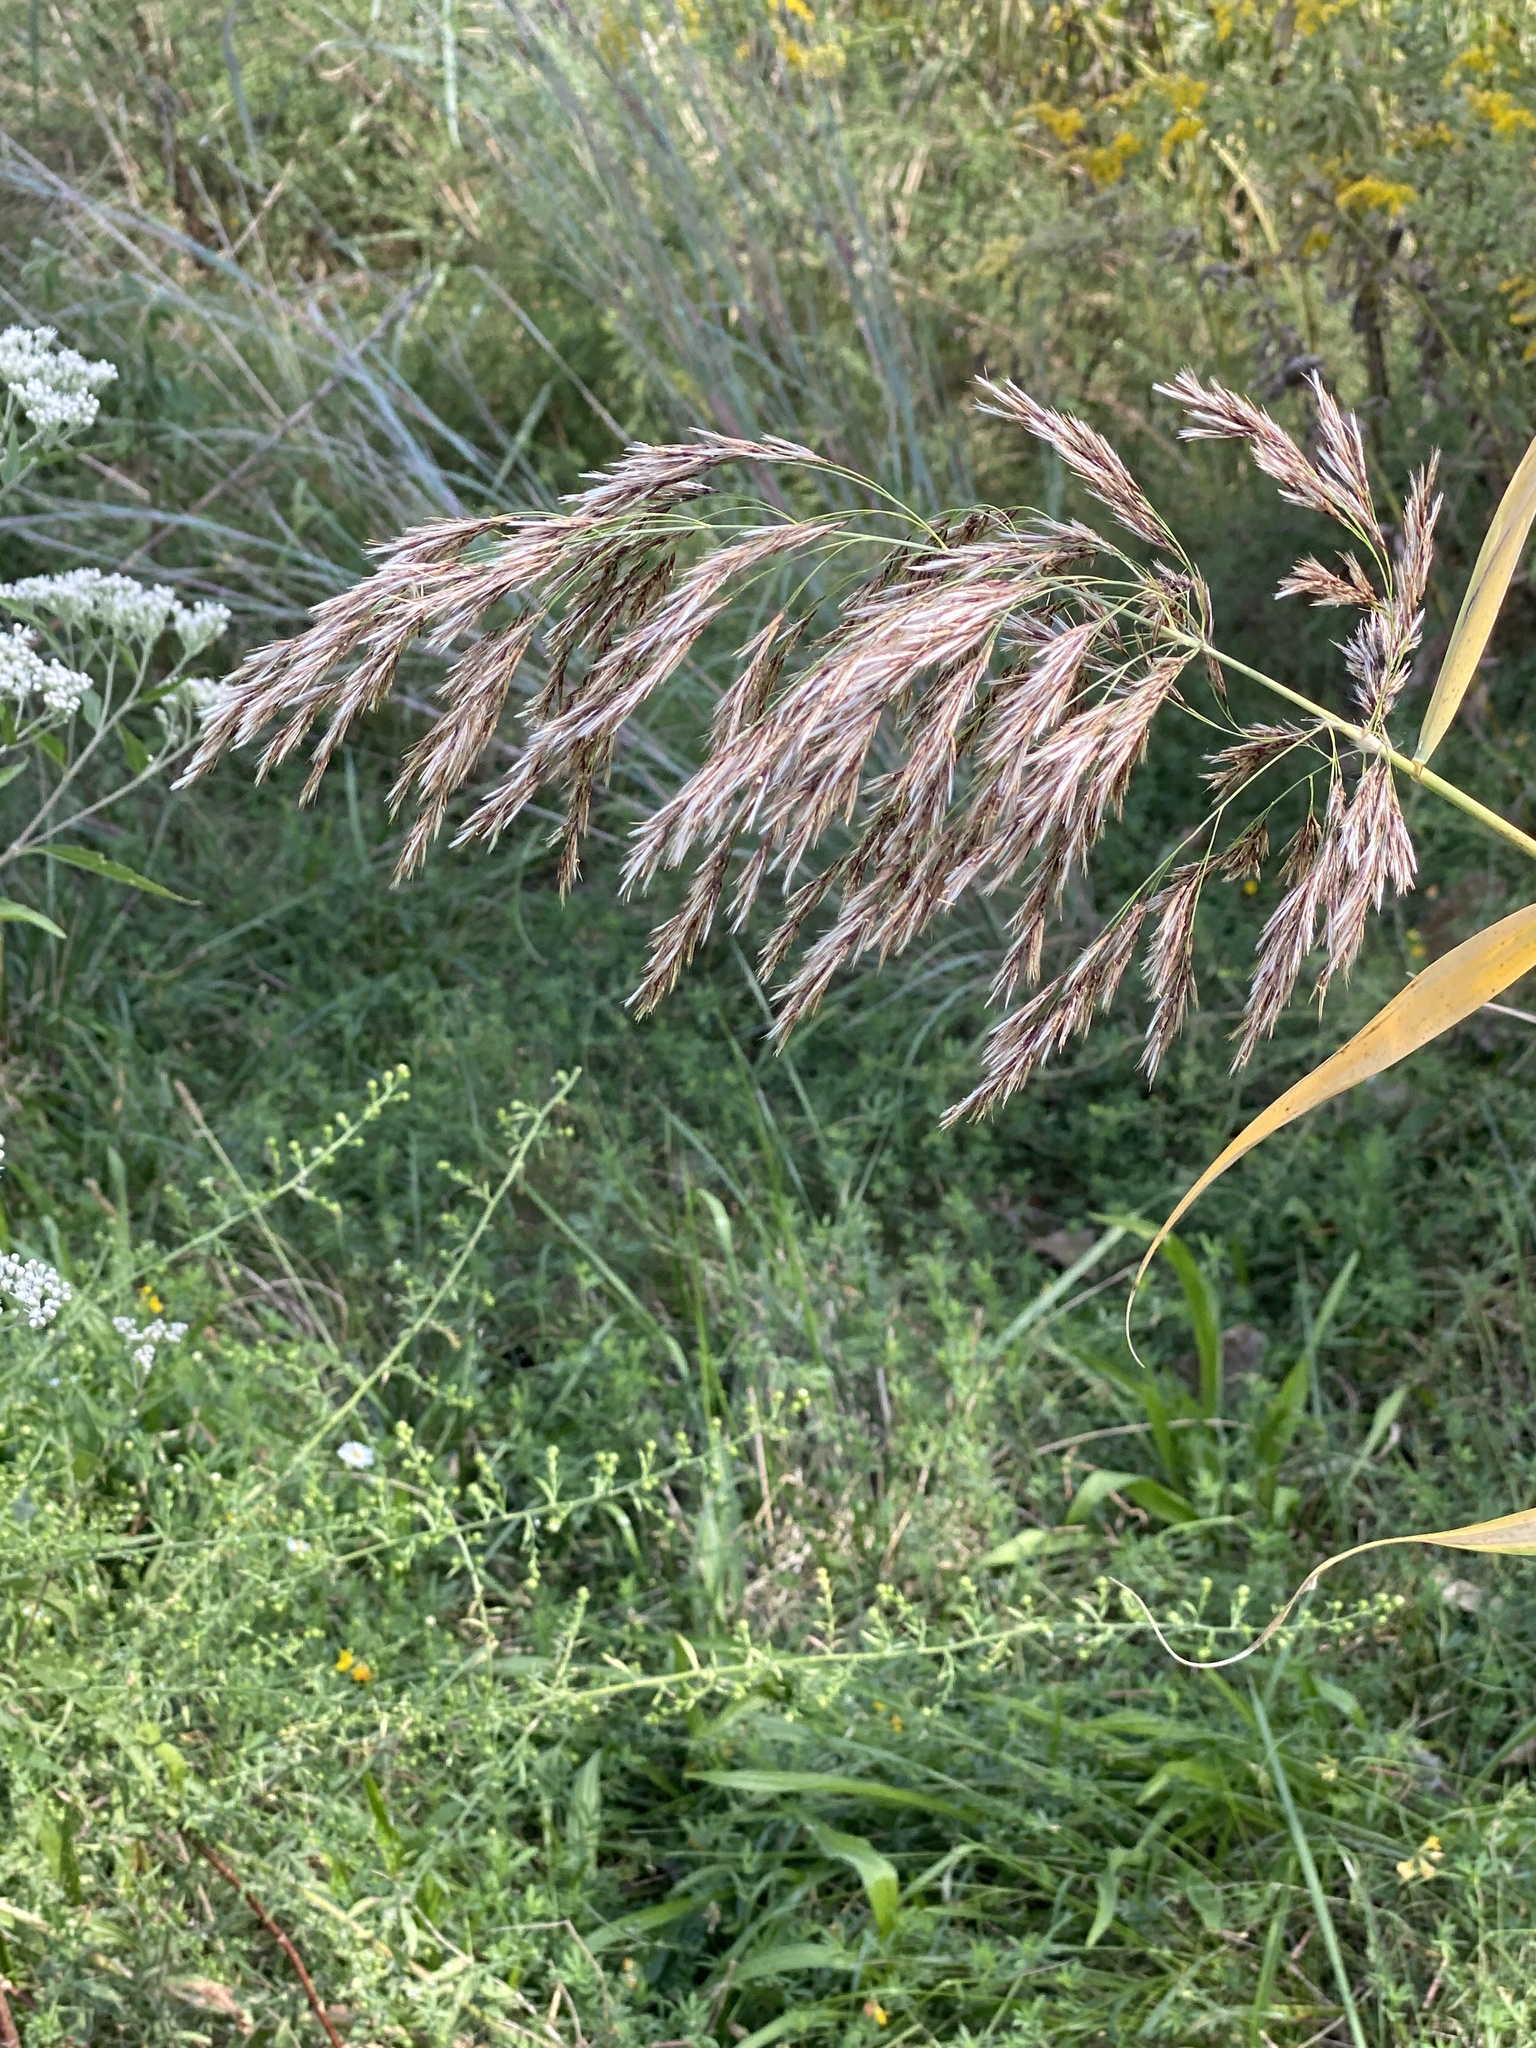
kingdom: Plantae
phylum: Tracheophyta
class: Liliopsida
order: Poales
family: Poaceae
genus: Phragmites
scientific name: Phragmites australis
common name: Common reed
